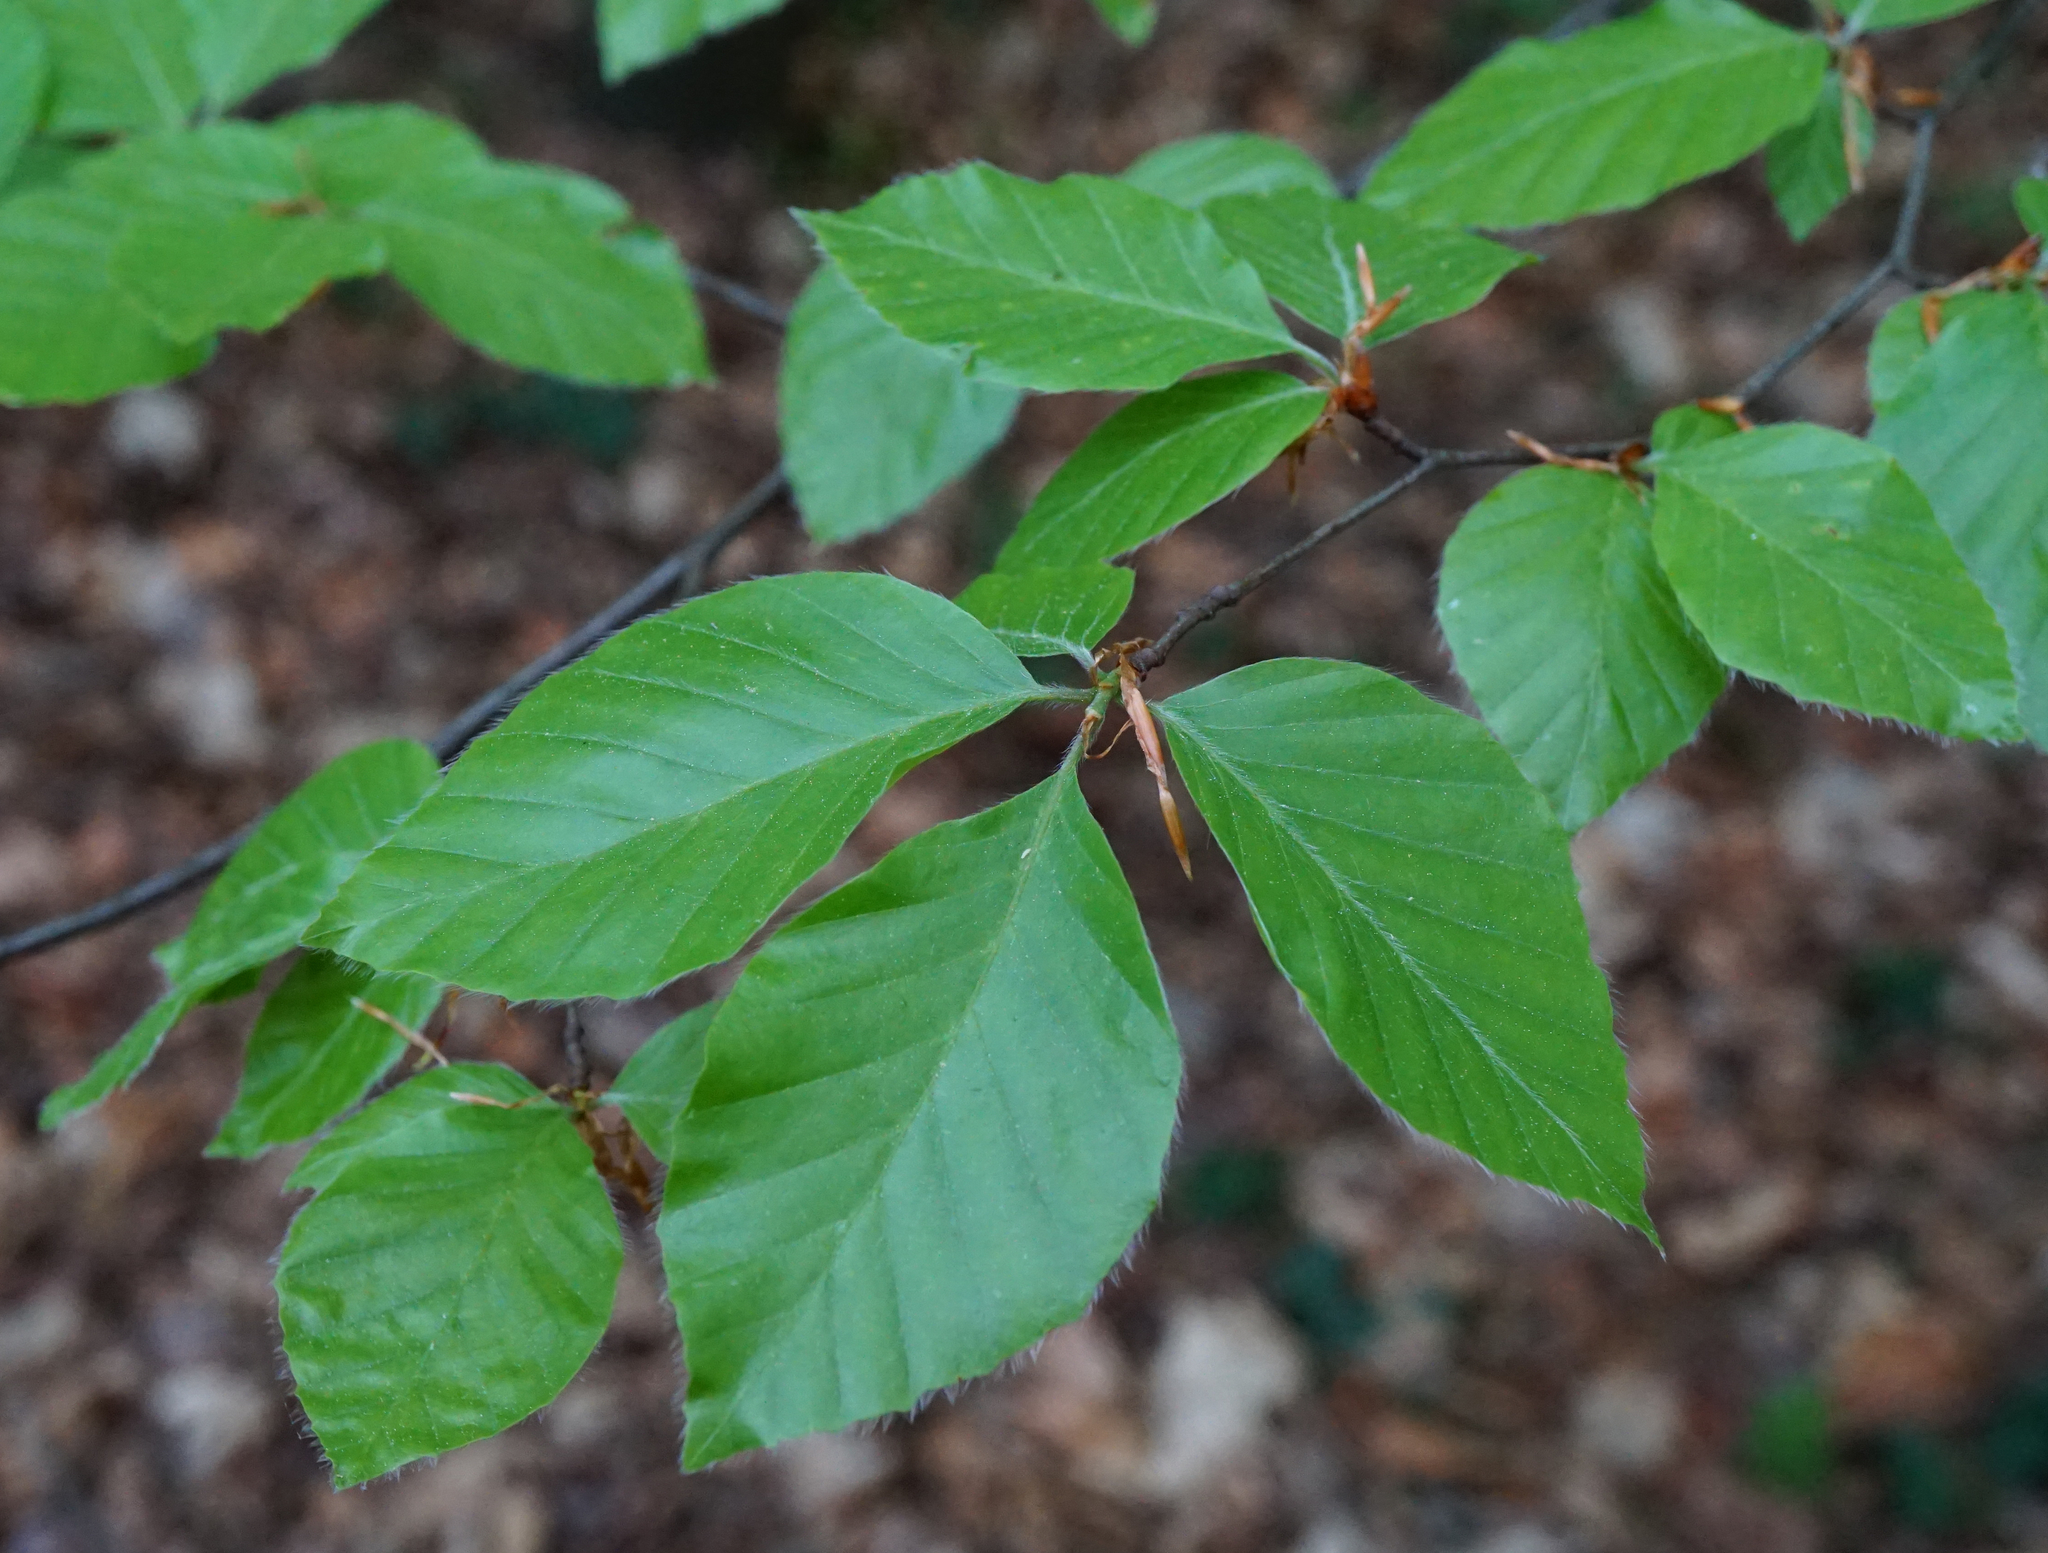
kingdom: Plantae
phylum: Tracheophyta
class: Magnoliopsida
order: Fagales
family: Fagaceae
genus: Fagus
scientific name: Fagus sylvatica
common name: Beech
